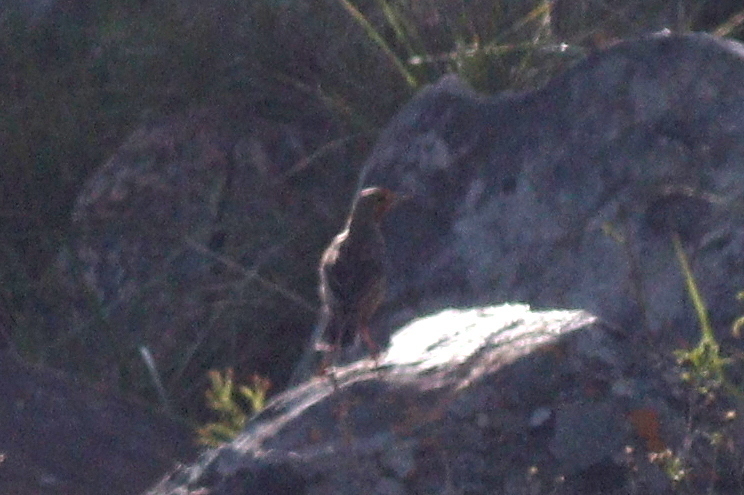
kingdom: Animalia
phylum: Chordata
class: Aves
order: Passeriformes
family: Motacillidae
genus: Macronyx
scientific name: Macronyx capensis
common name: Cape longclaw
